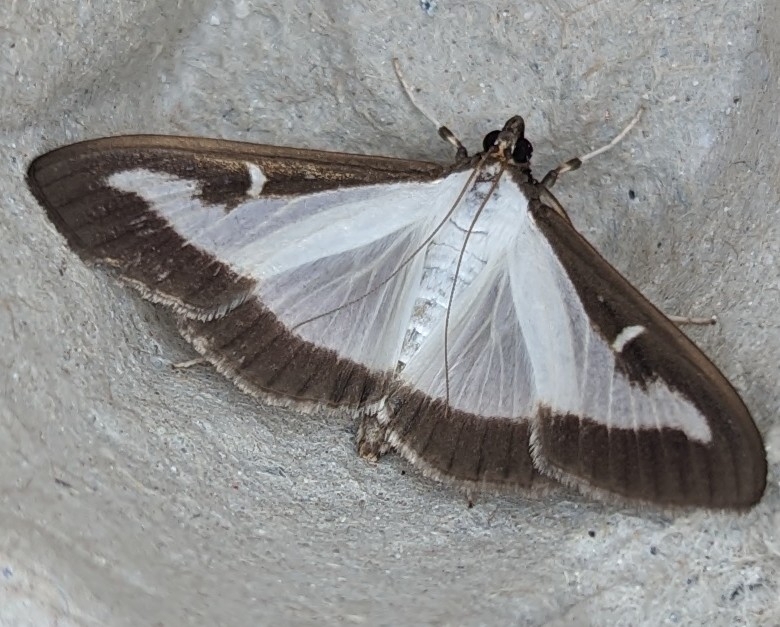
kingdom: Animalia
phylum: Arthropoda
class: Insecta
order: Lepidoptera
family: Crambidae
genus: Cydalima
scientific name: Cydalima perspectalis
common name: Box tree moth
